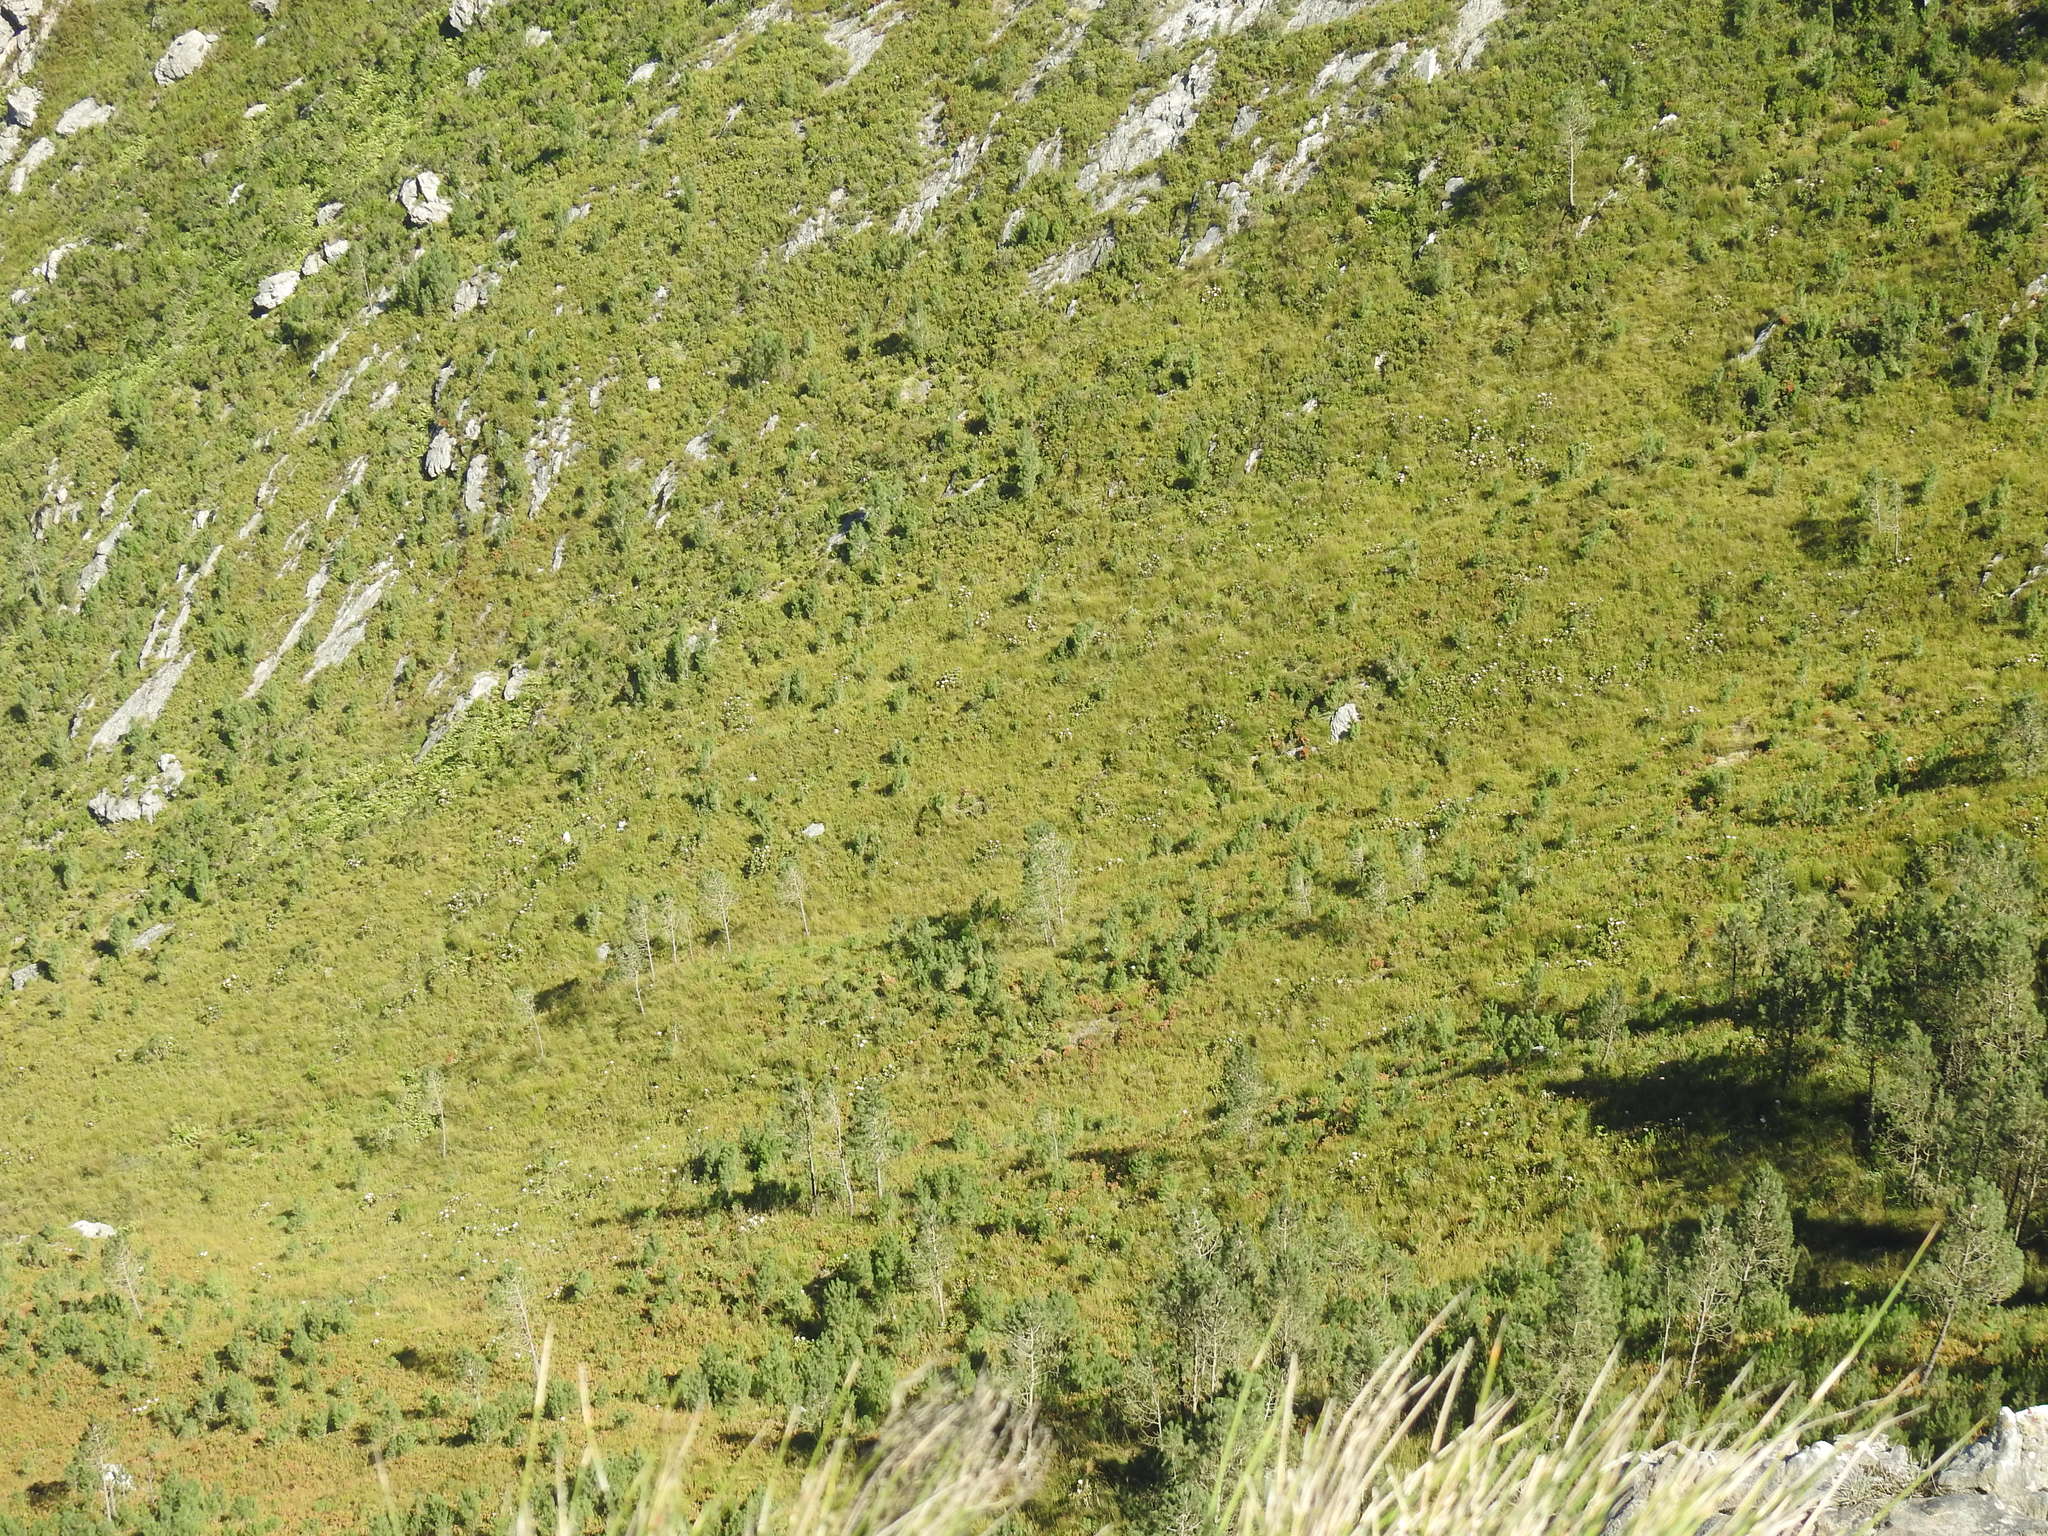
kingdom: Plantae
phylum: Tracheophyta
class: Magnoliopsida
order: Proteales
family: Proteaceae
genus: Protea
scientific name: Protea cynaroides
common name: King protea
